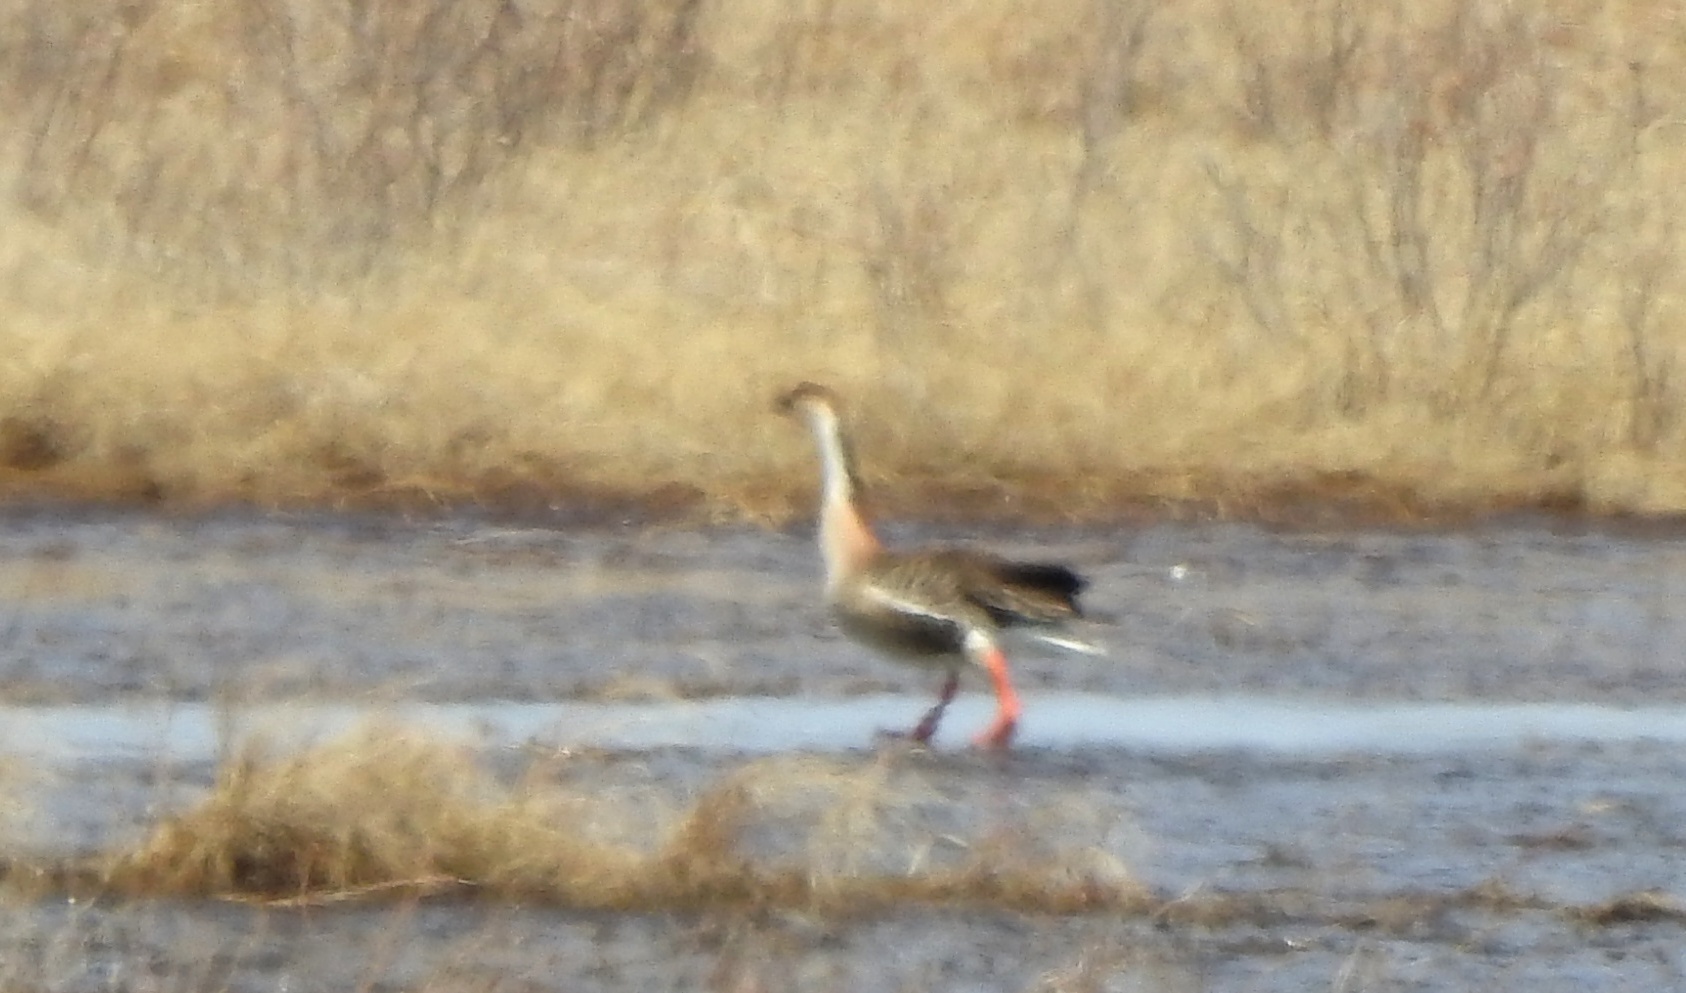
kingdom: Animalia
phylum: Chordata
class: Aves
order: Anseriformes
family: Anatidae
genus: Anser
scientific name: Anser cygnoides
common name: Swan goose
